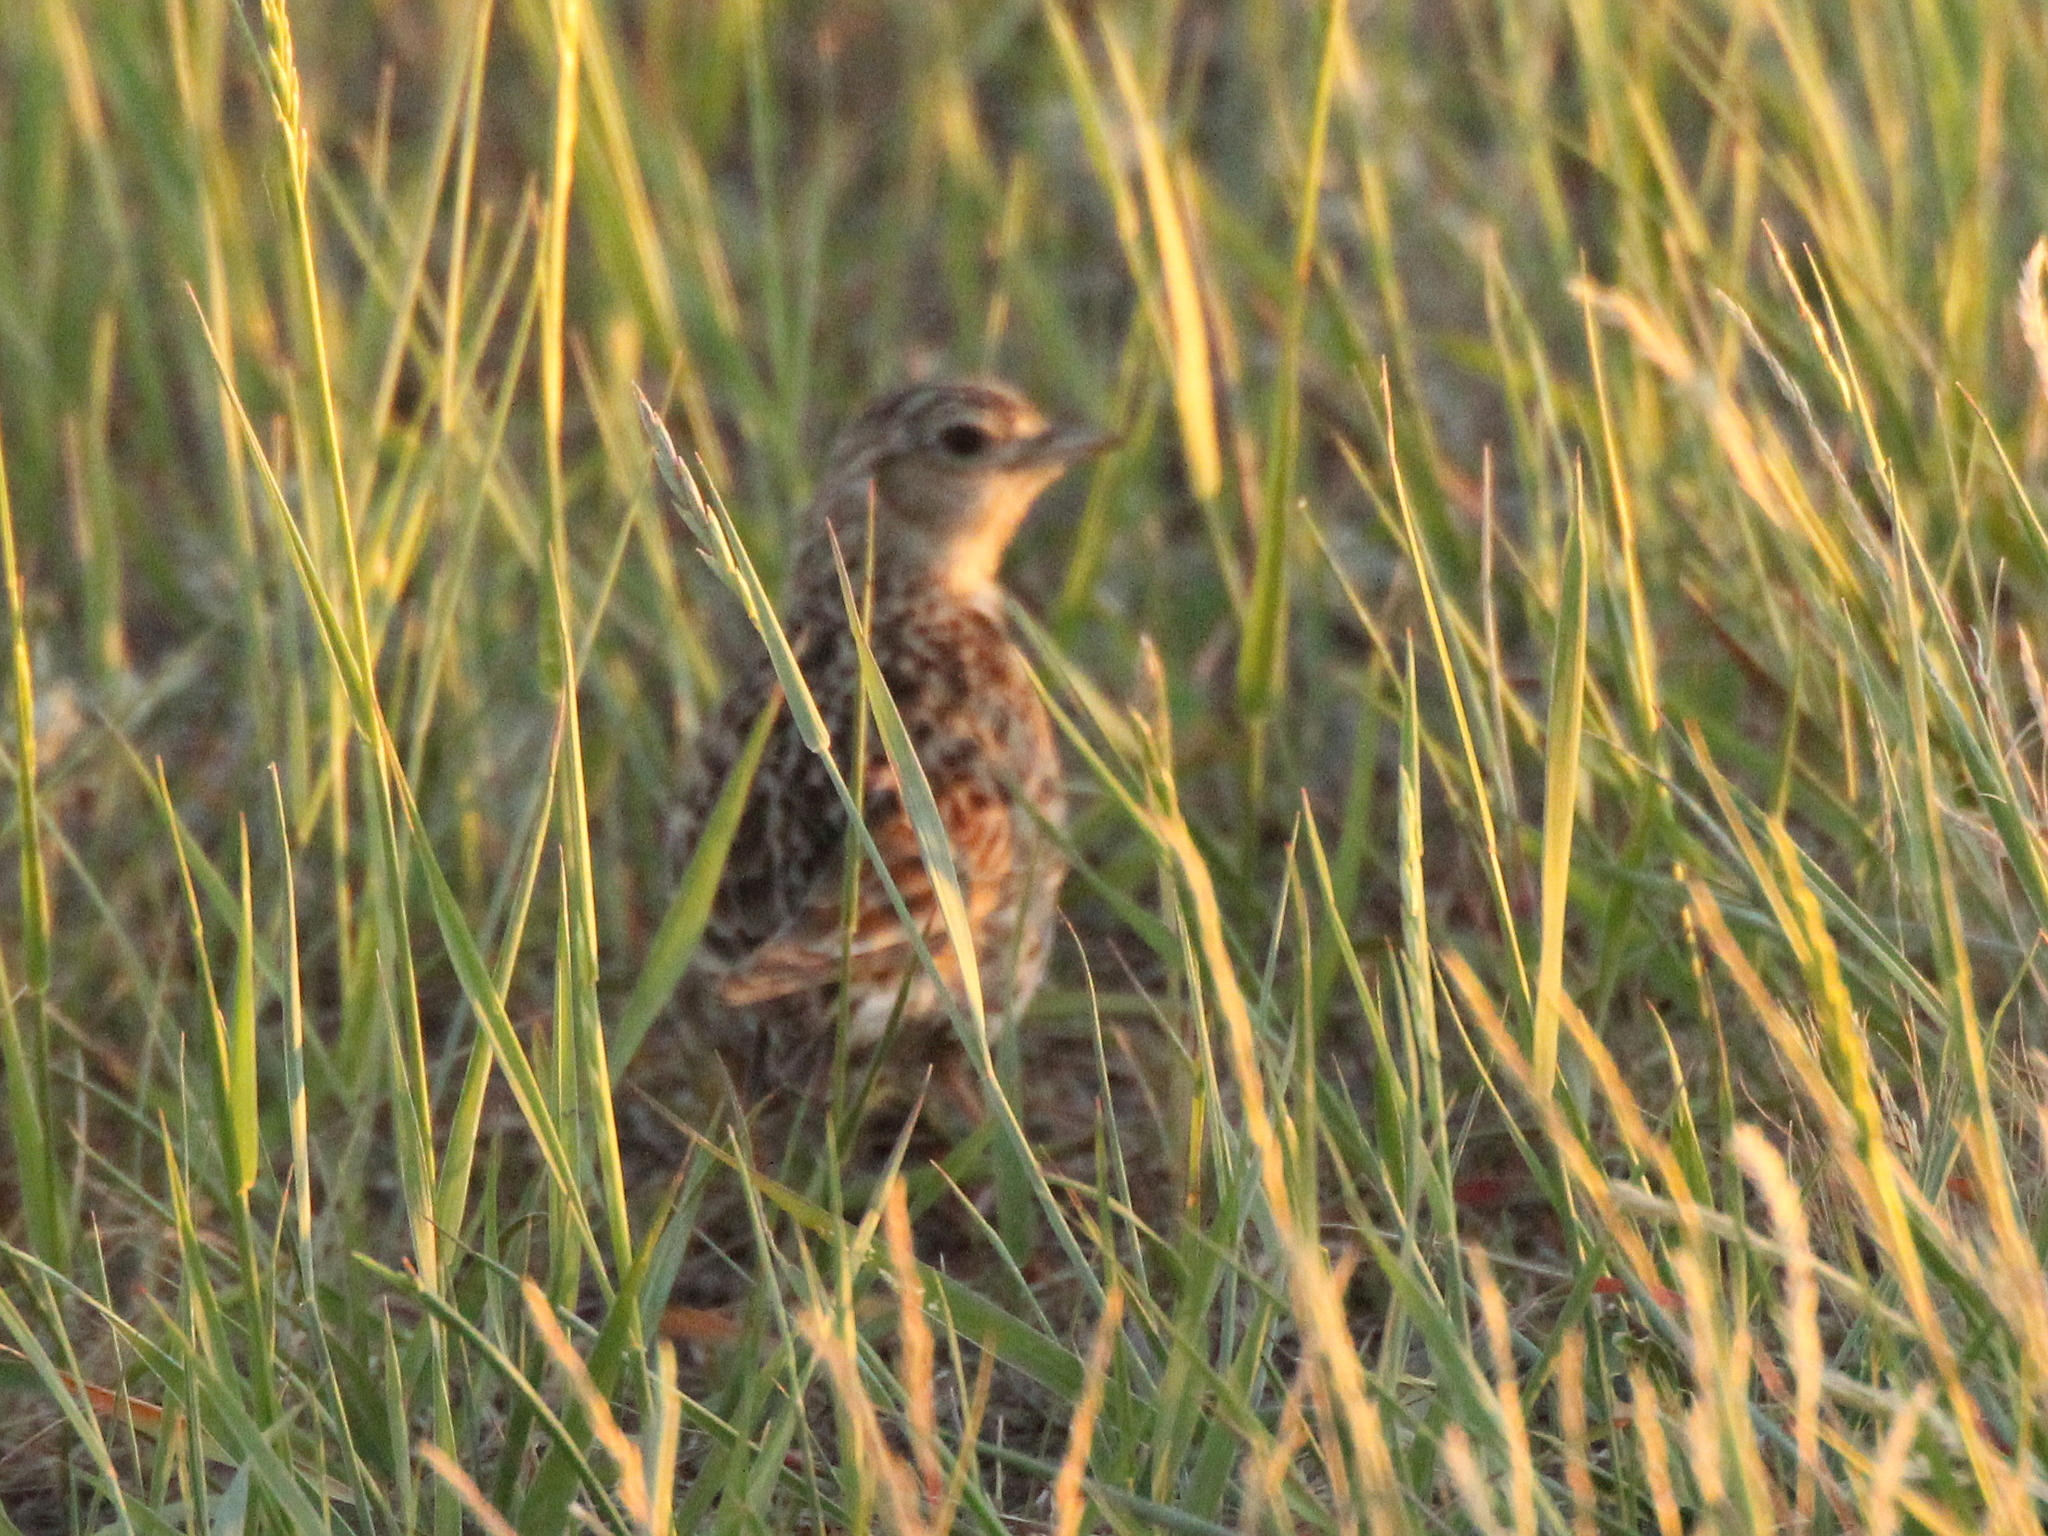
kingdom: Animalia
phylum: Chordata
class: Aves
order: Passeriformes
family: Alaudidae
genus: Alauda
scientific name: Alauda arvensis
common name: Eurasian skylark
